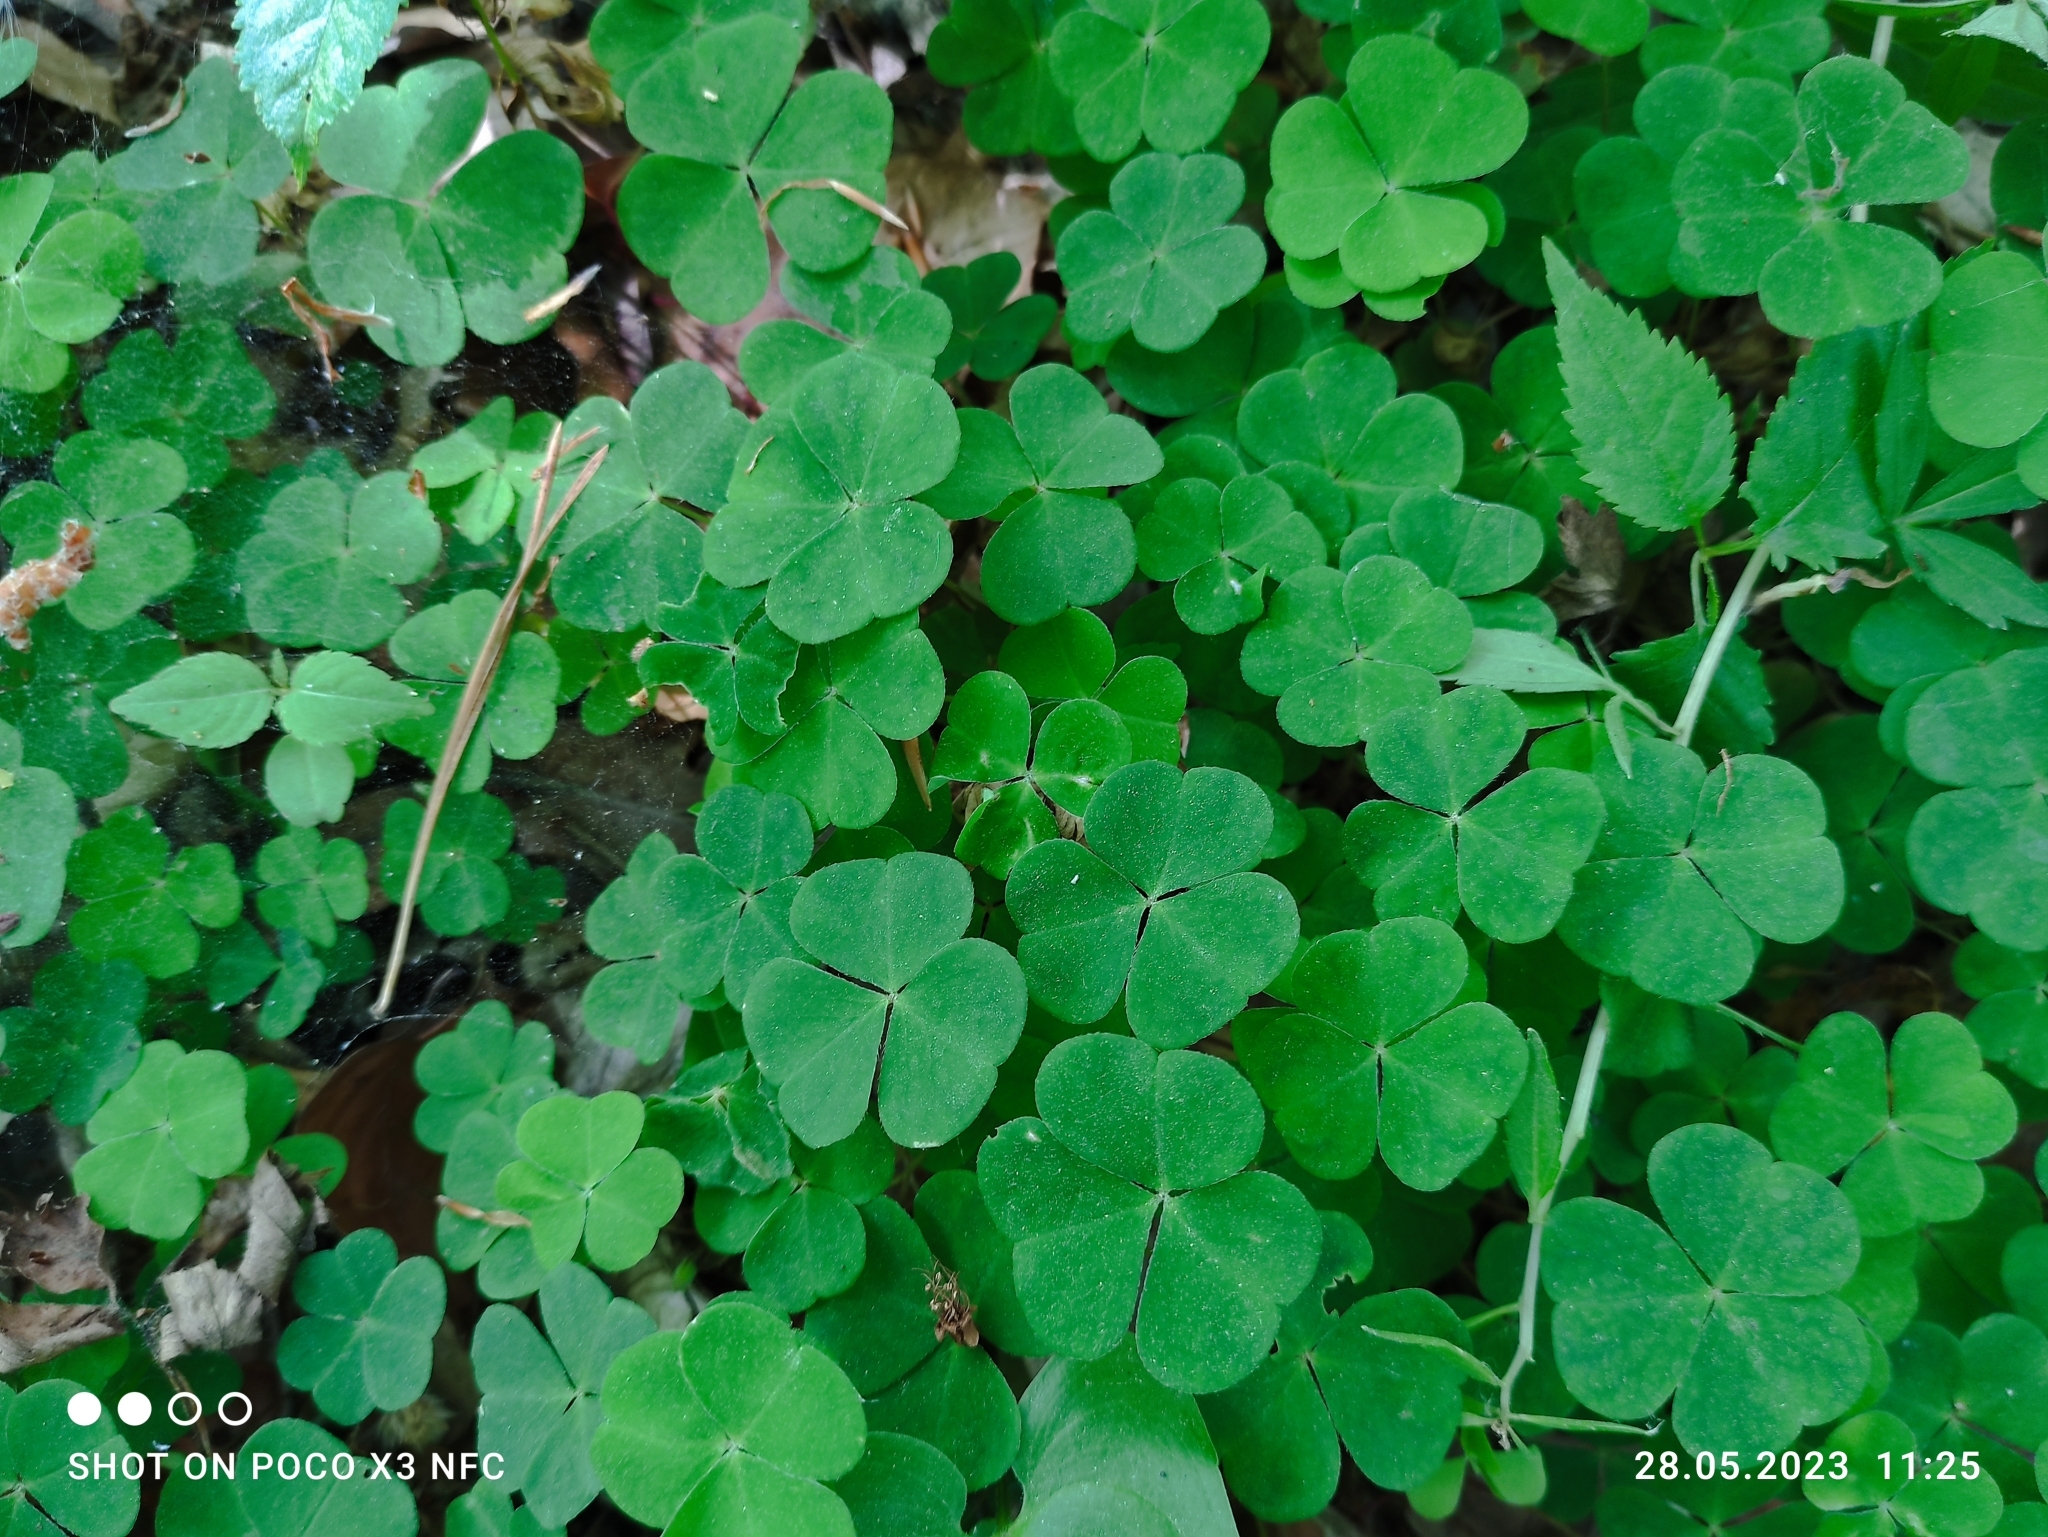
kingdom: Plantae
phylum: Tracheophyta
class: Magnoliopsida
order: Oxalidales
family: Oxalidaceae
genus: Oxalis
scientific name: Oxalis acetosella
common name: Wood-sorrel
